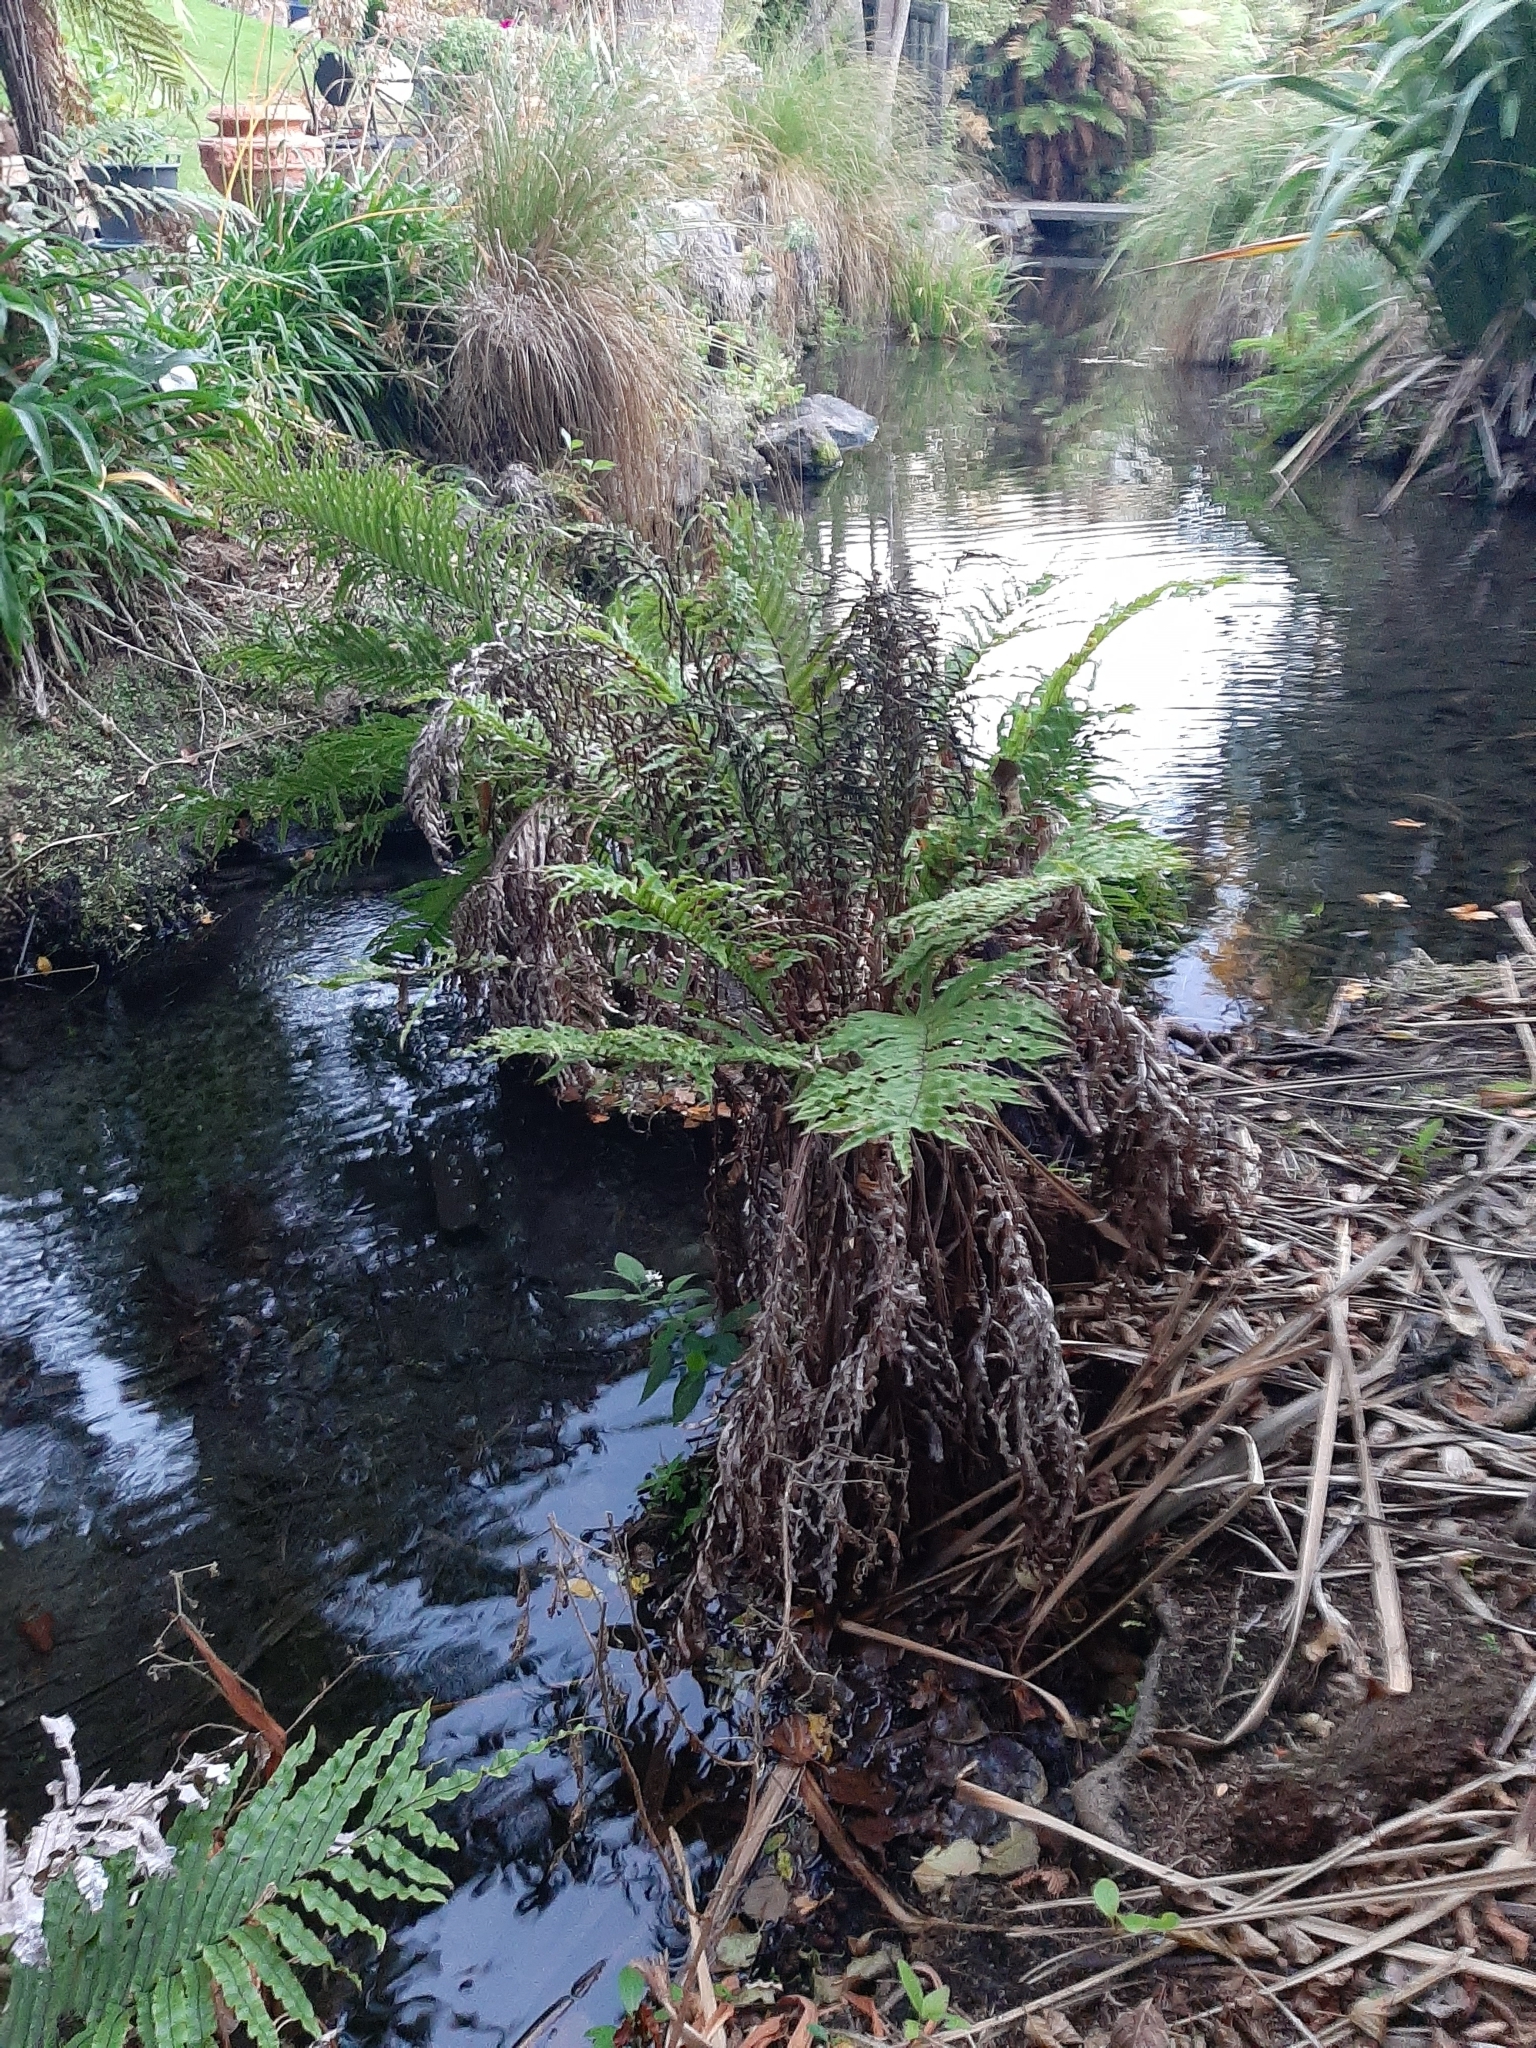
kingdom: Plantae
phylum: Tracheophyta
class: Polypodiopsida
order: Polypodiales
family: Blechnaceae
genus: Parablechnum
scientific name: Parablechnum minus
